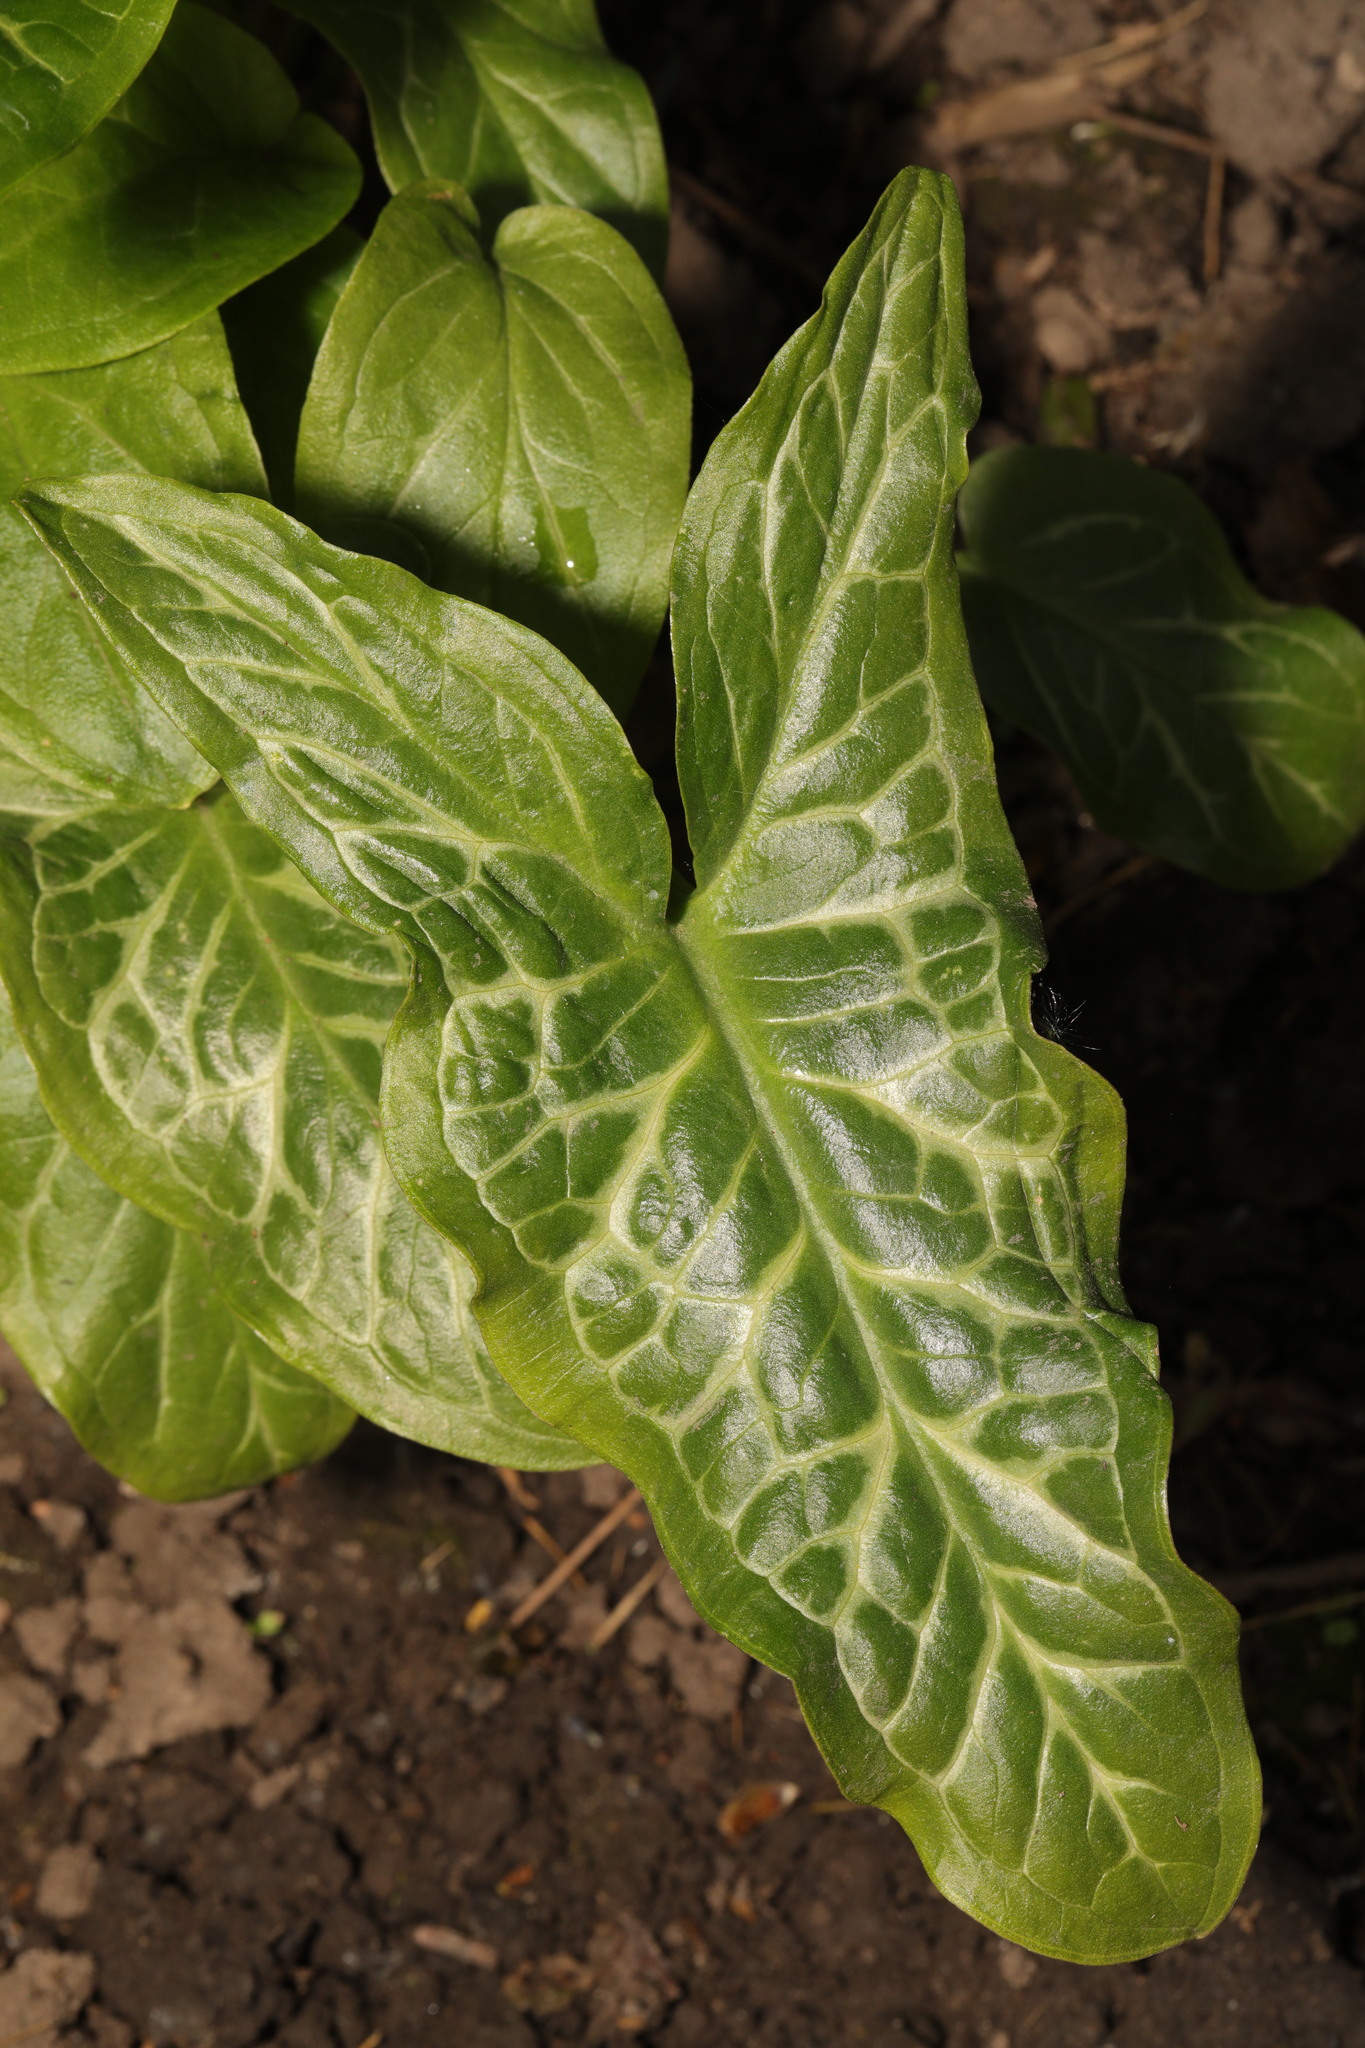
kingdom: Plantae
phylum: Tracheophyta
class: Liliopsida
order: Alismatales
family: Araceae
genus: Arum
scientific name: Arum italicum
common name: Italian lords-and-ladies
